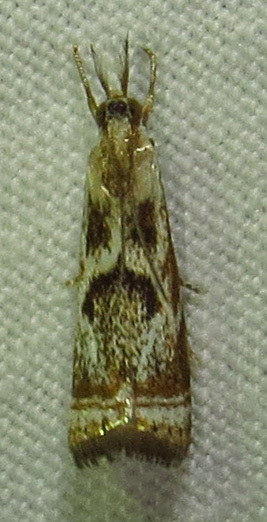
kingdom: Animalia
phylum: Arthropoda
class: Insecta
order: Lepidoptera
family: Crambidae
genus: Microcrambus
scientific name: Microcrambus elegans
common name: Elegant grass-veneer
